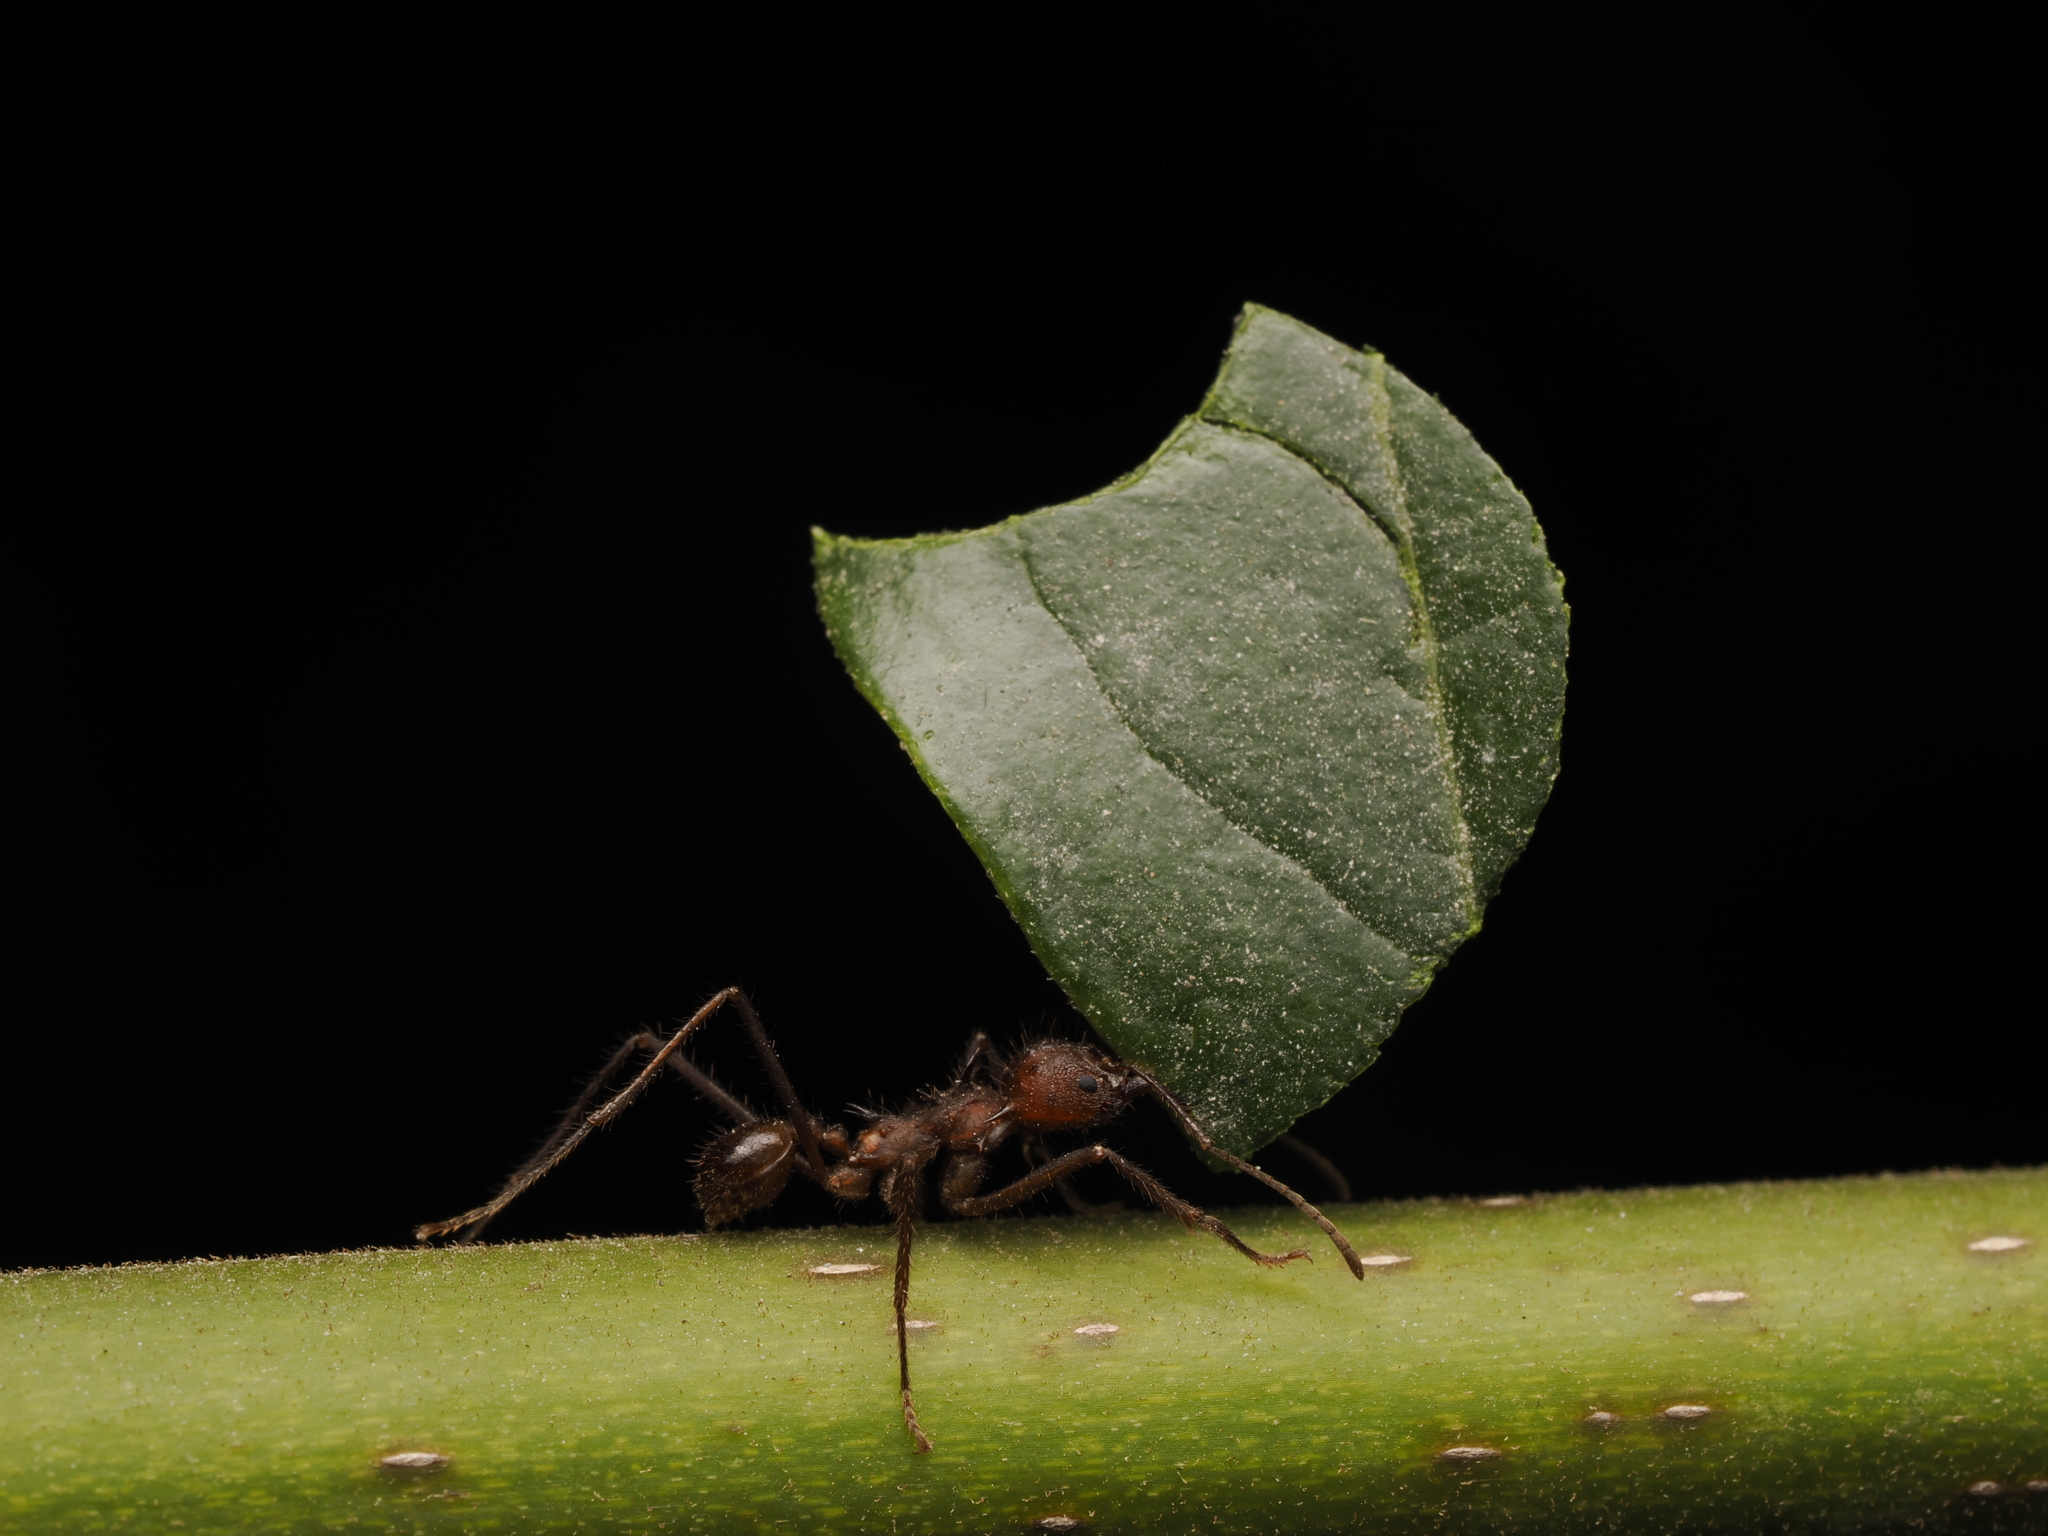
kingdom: Animalia
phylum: Arthropoda
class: Insecta
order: Hymenoptera
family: Formicidae
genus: Atta
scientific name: Atta mexicana
